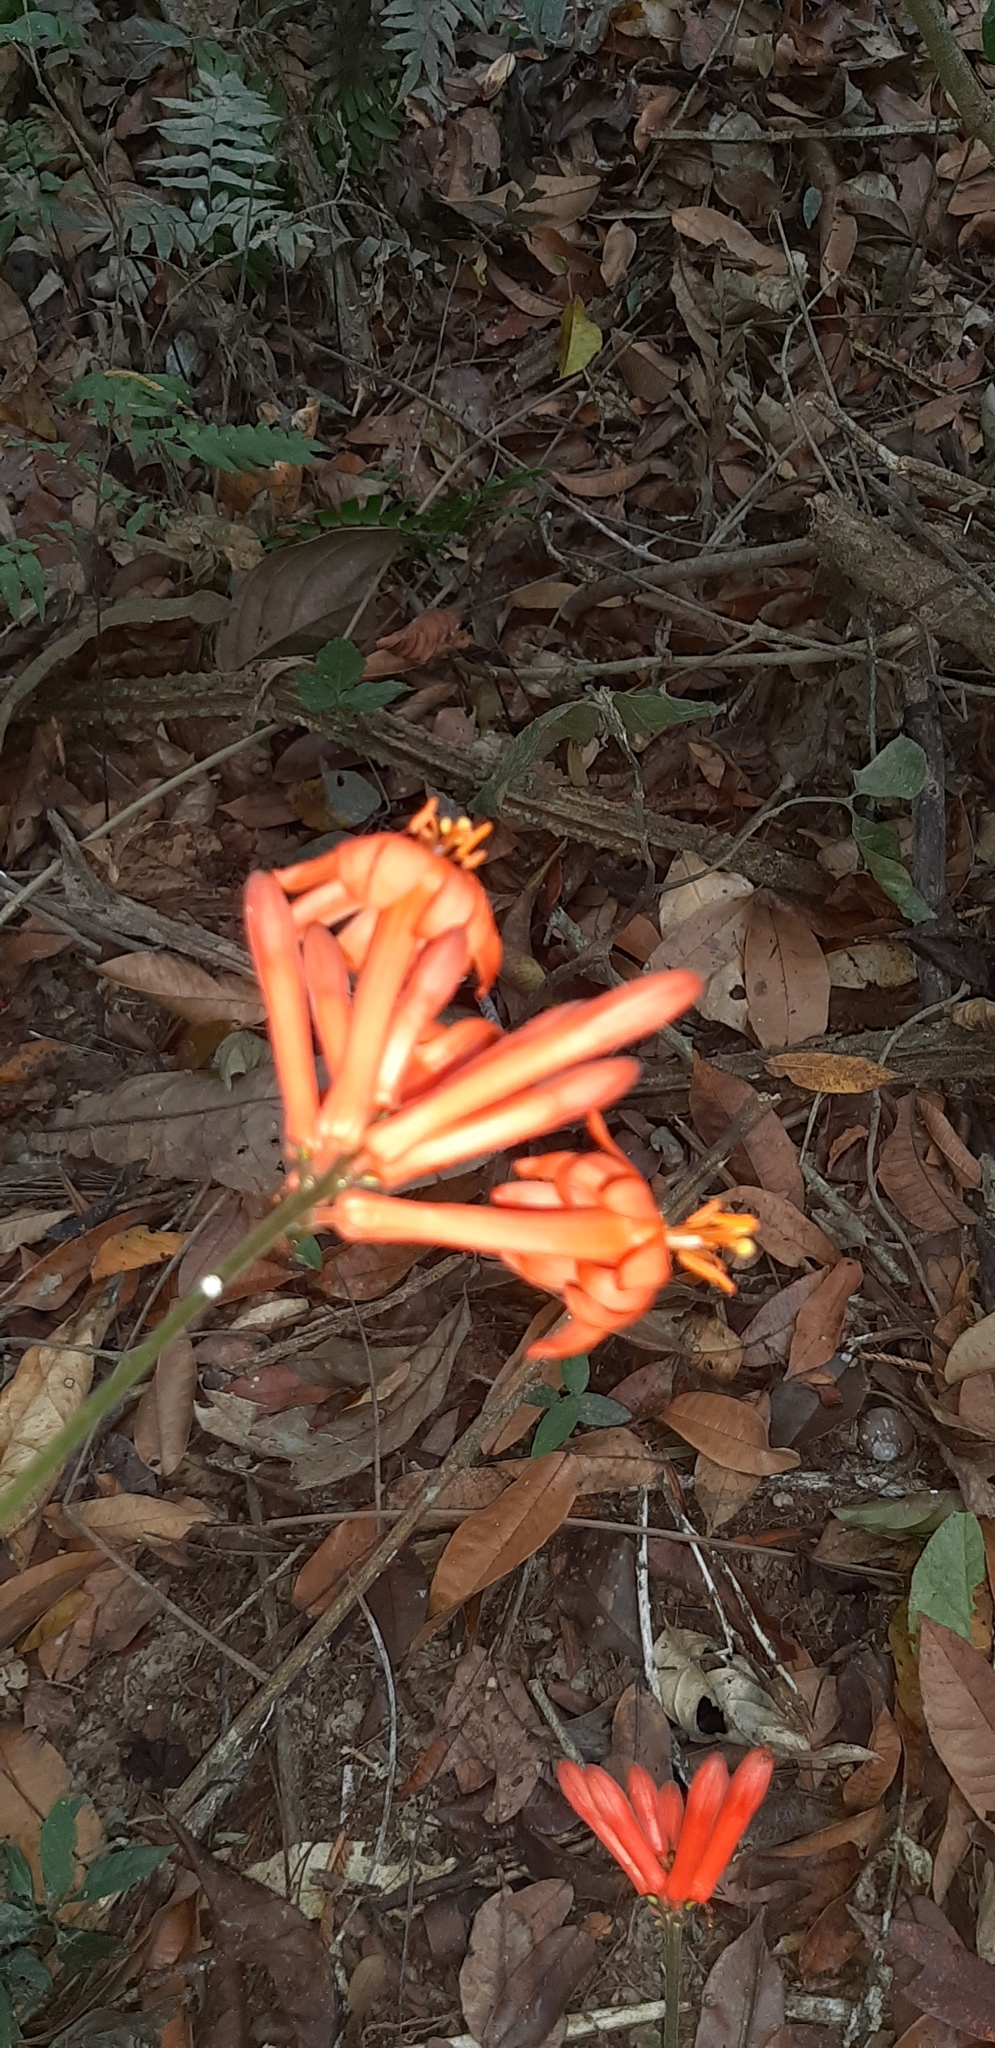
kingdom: Plantae
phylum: Tracheophyta
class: Magnoliopsida
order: Malpighiales
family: Passifloraceae
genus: Passiflora
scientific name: Passiflora rusbyi
